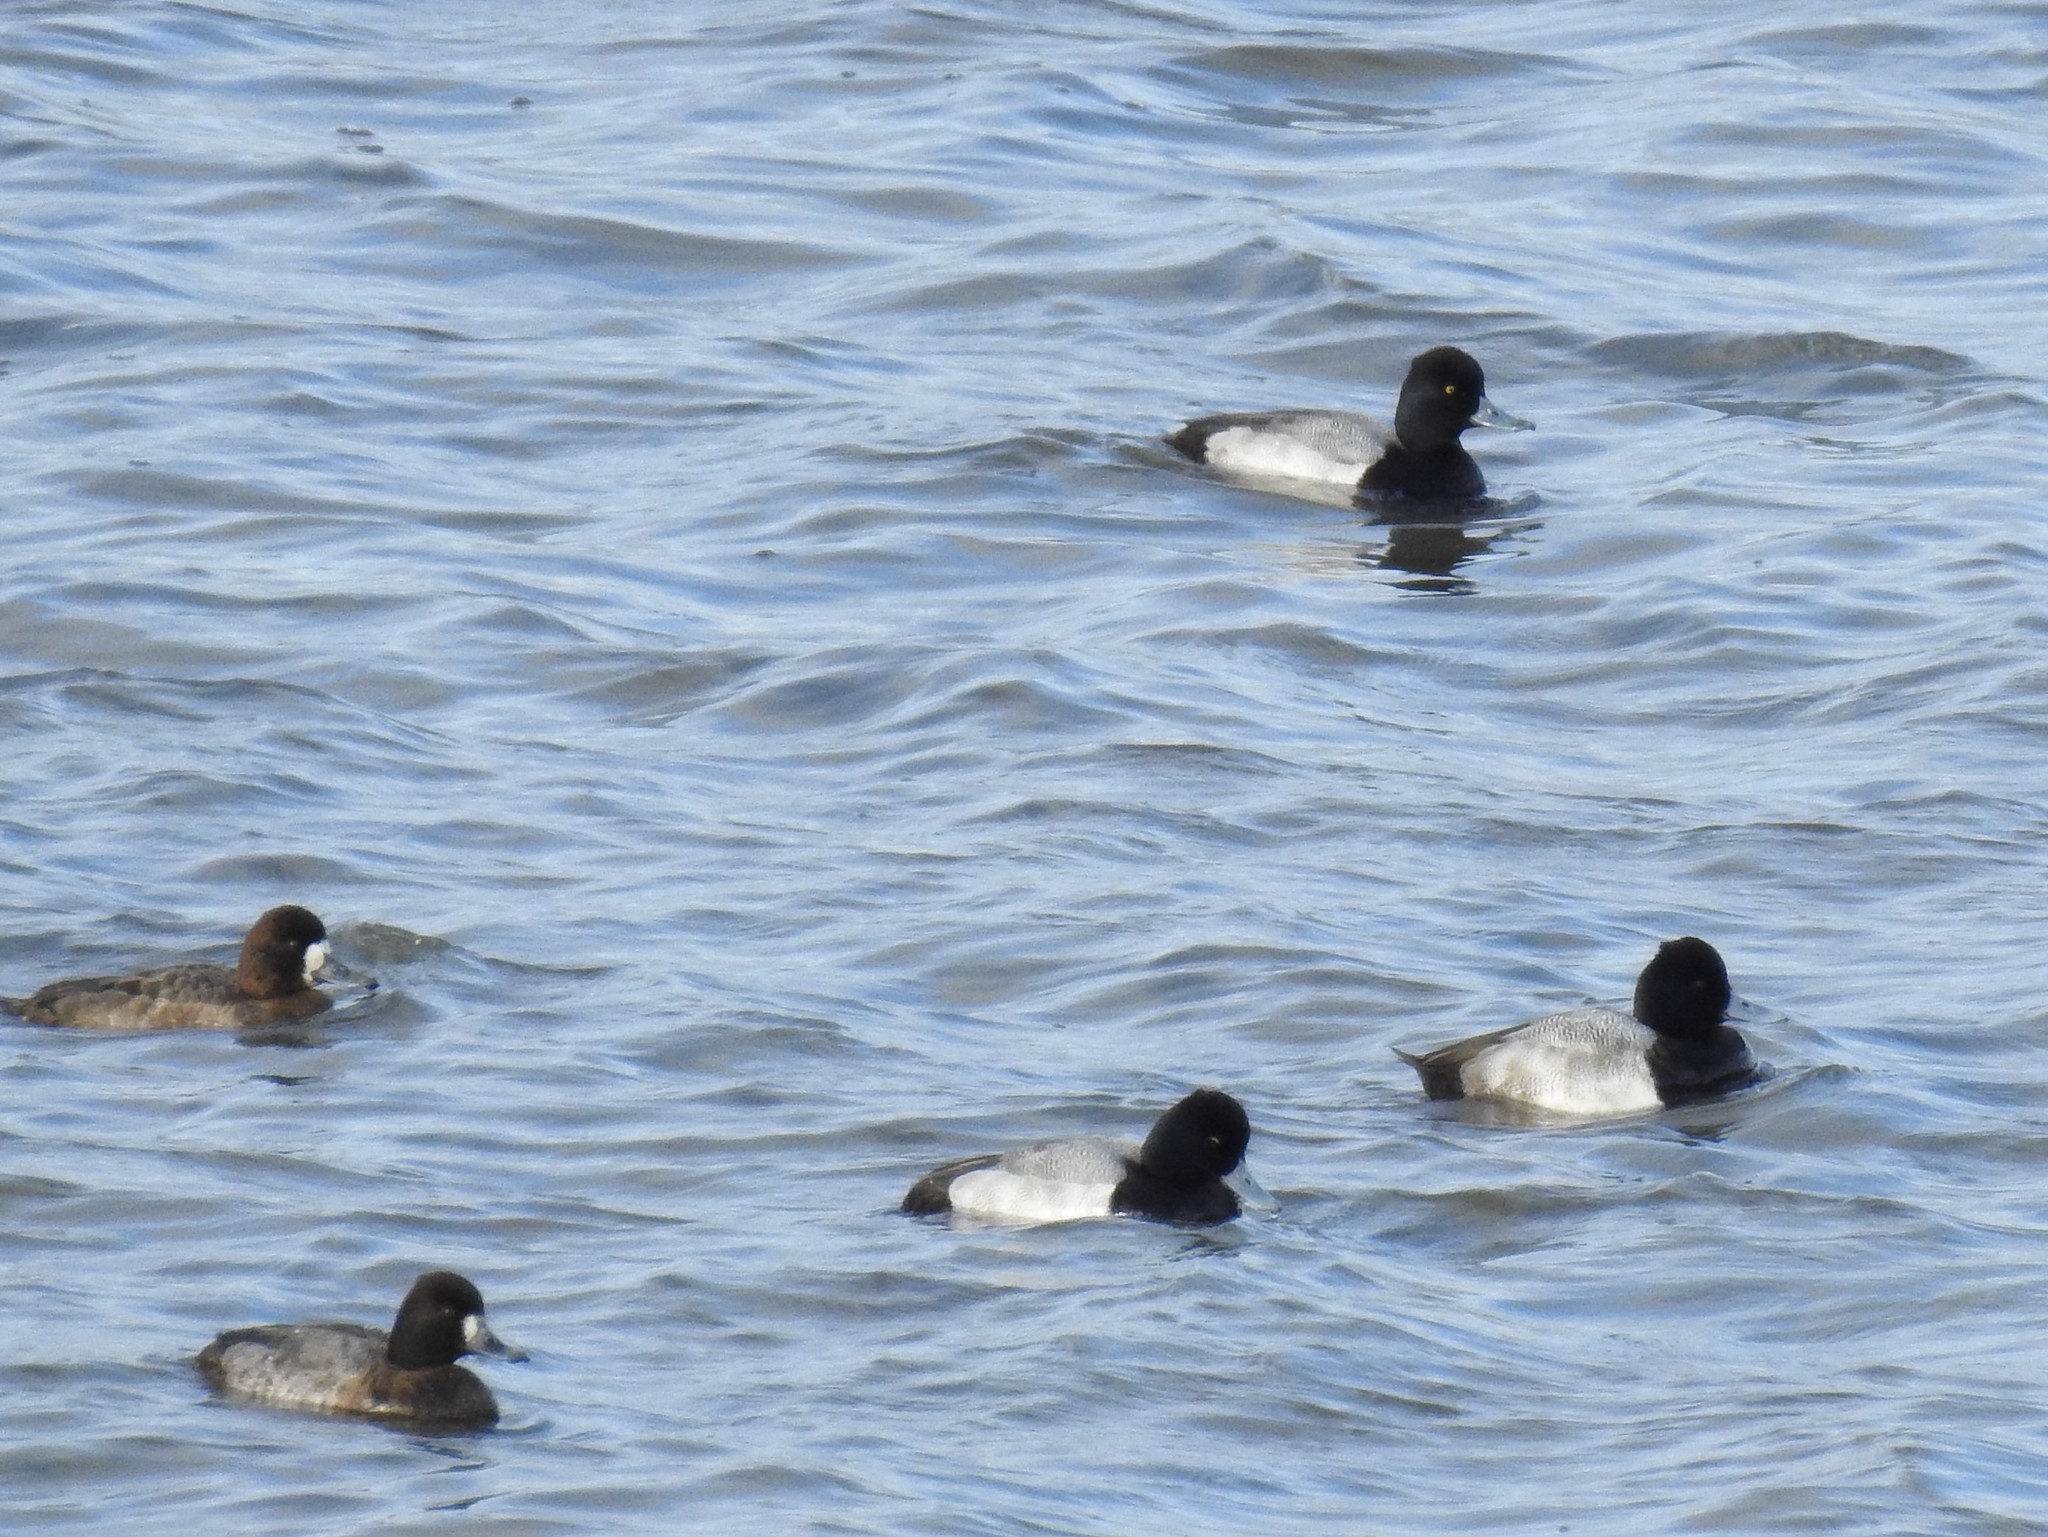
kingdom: Animalia
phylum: Chordata
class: Aves
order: Anseriformes
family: Anatidae
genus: Aythya
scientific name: Aythya affinis
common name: Lesser scaup
